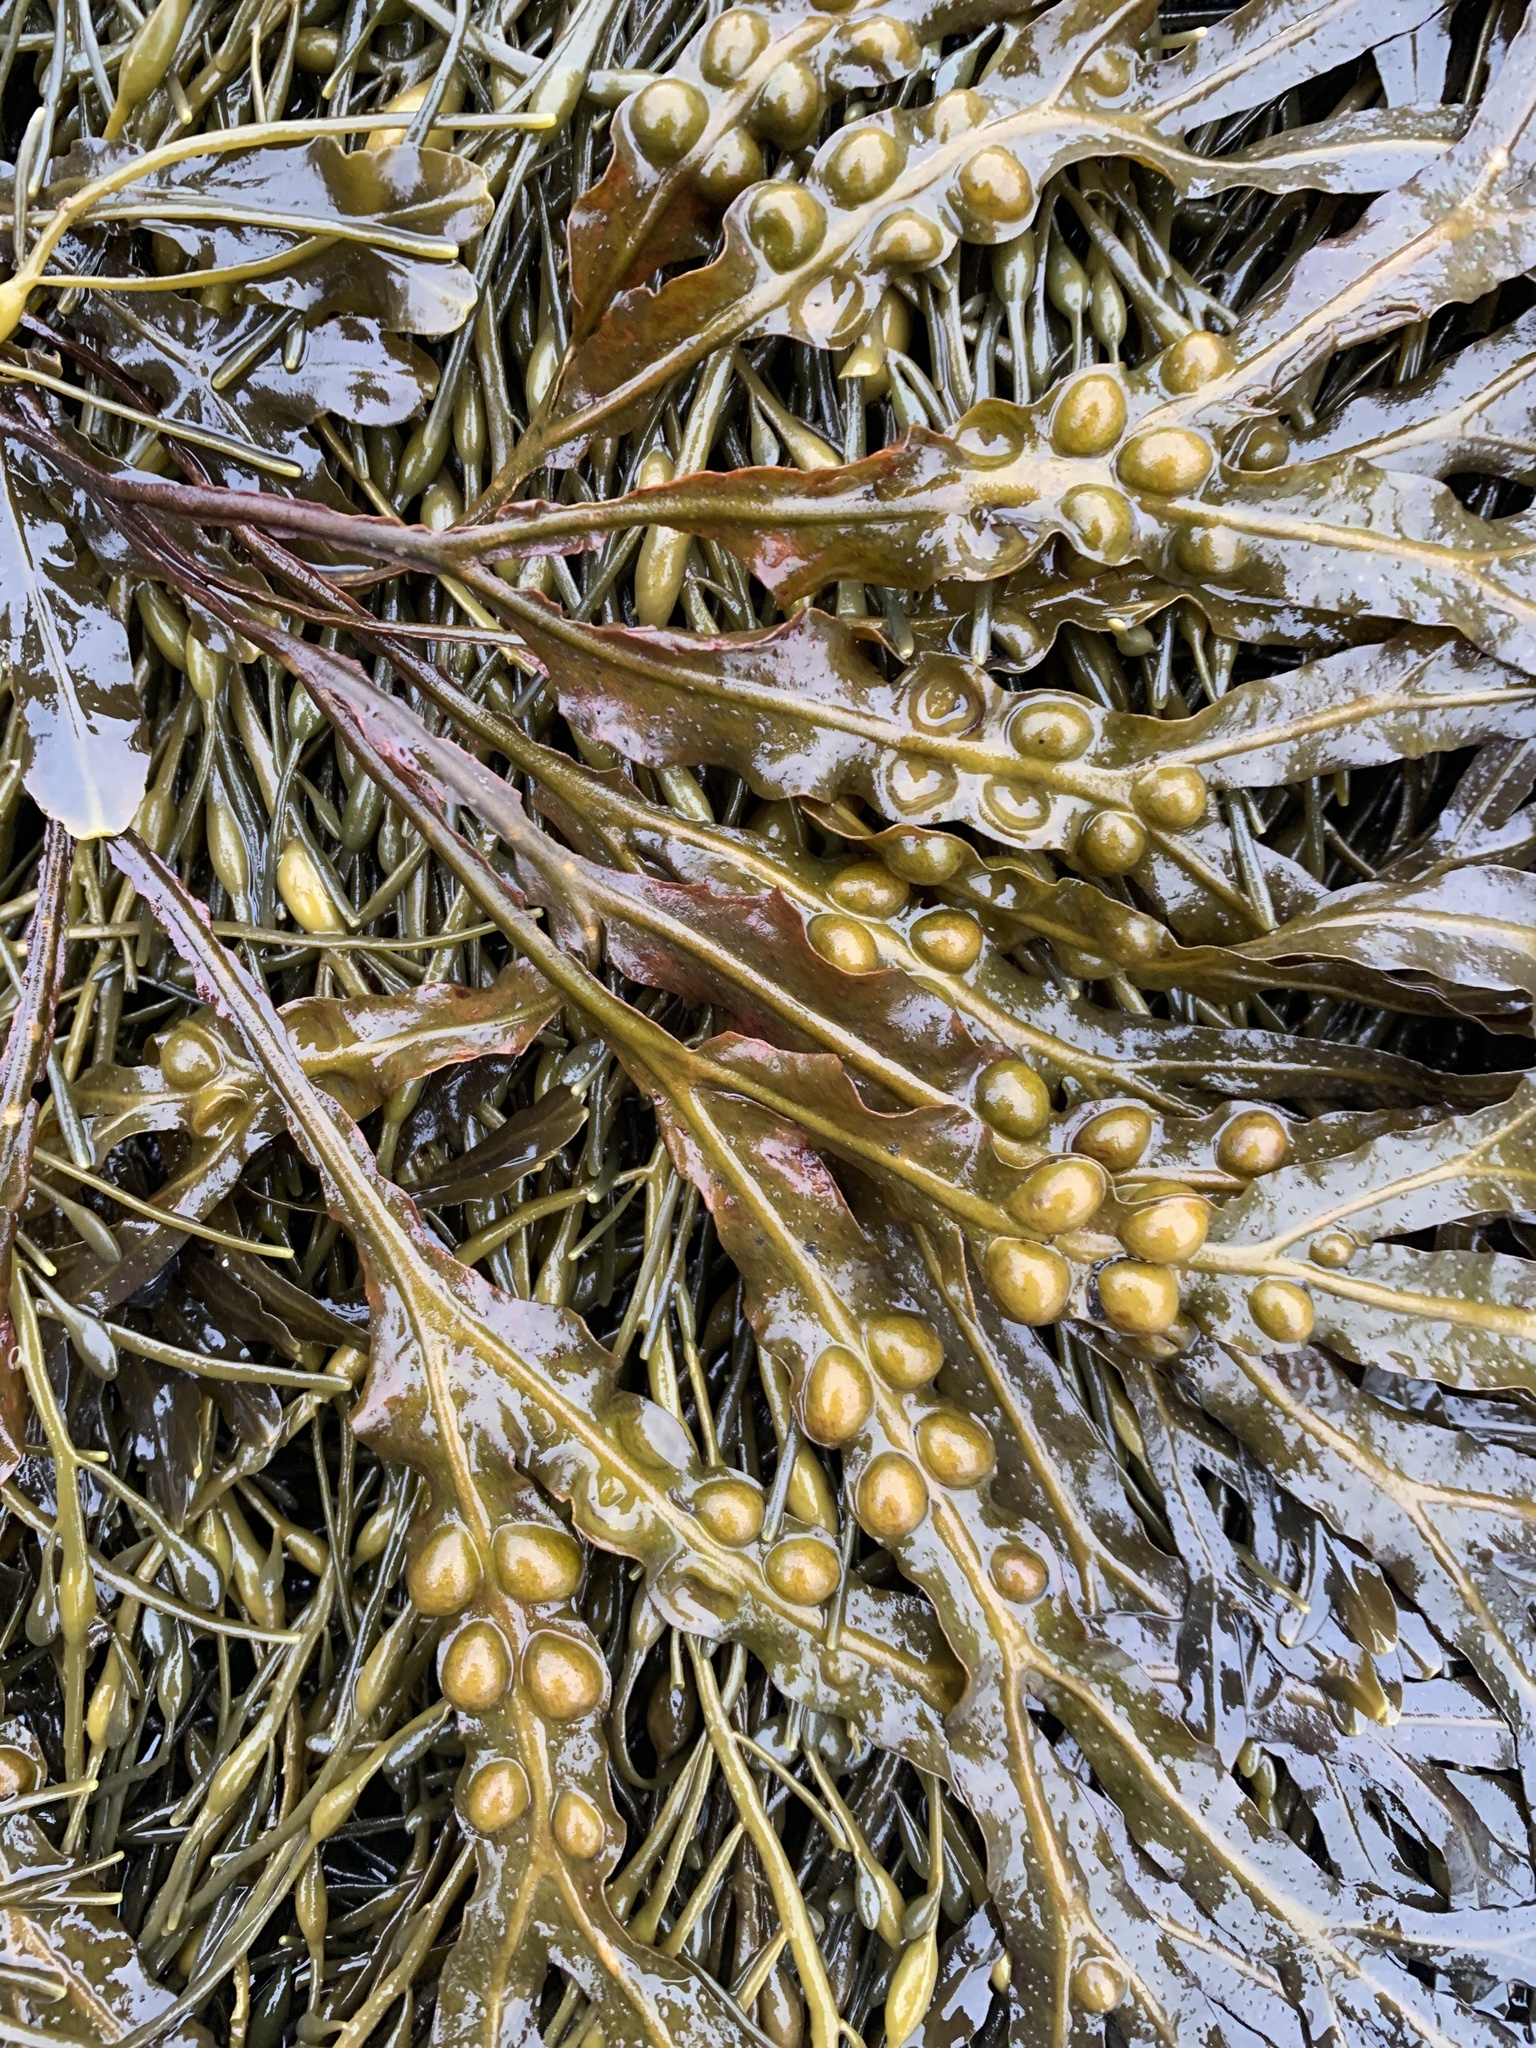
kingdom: Chromista
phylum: Ochrophyta
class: Phaeophyceae
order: Fucales
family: Fucaceae
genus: Fucus
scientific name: Fucus vesiculosus
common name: Bladder wrack
